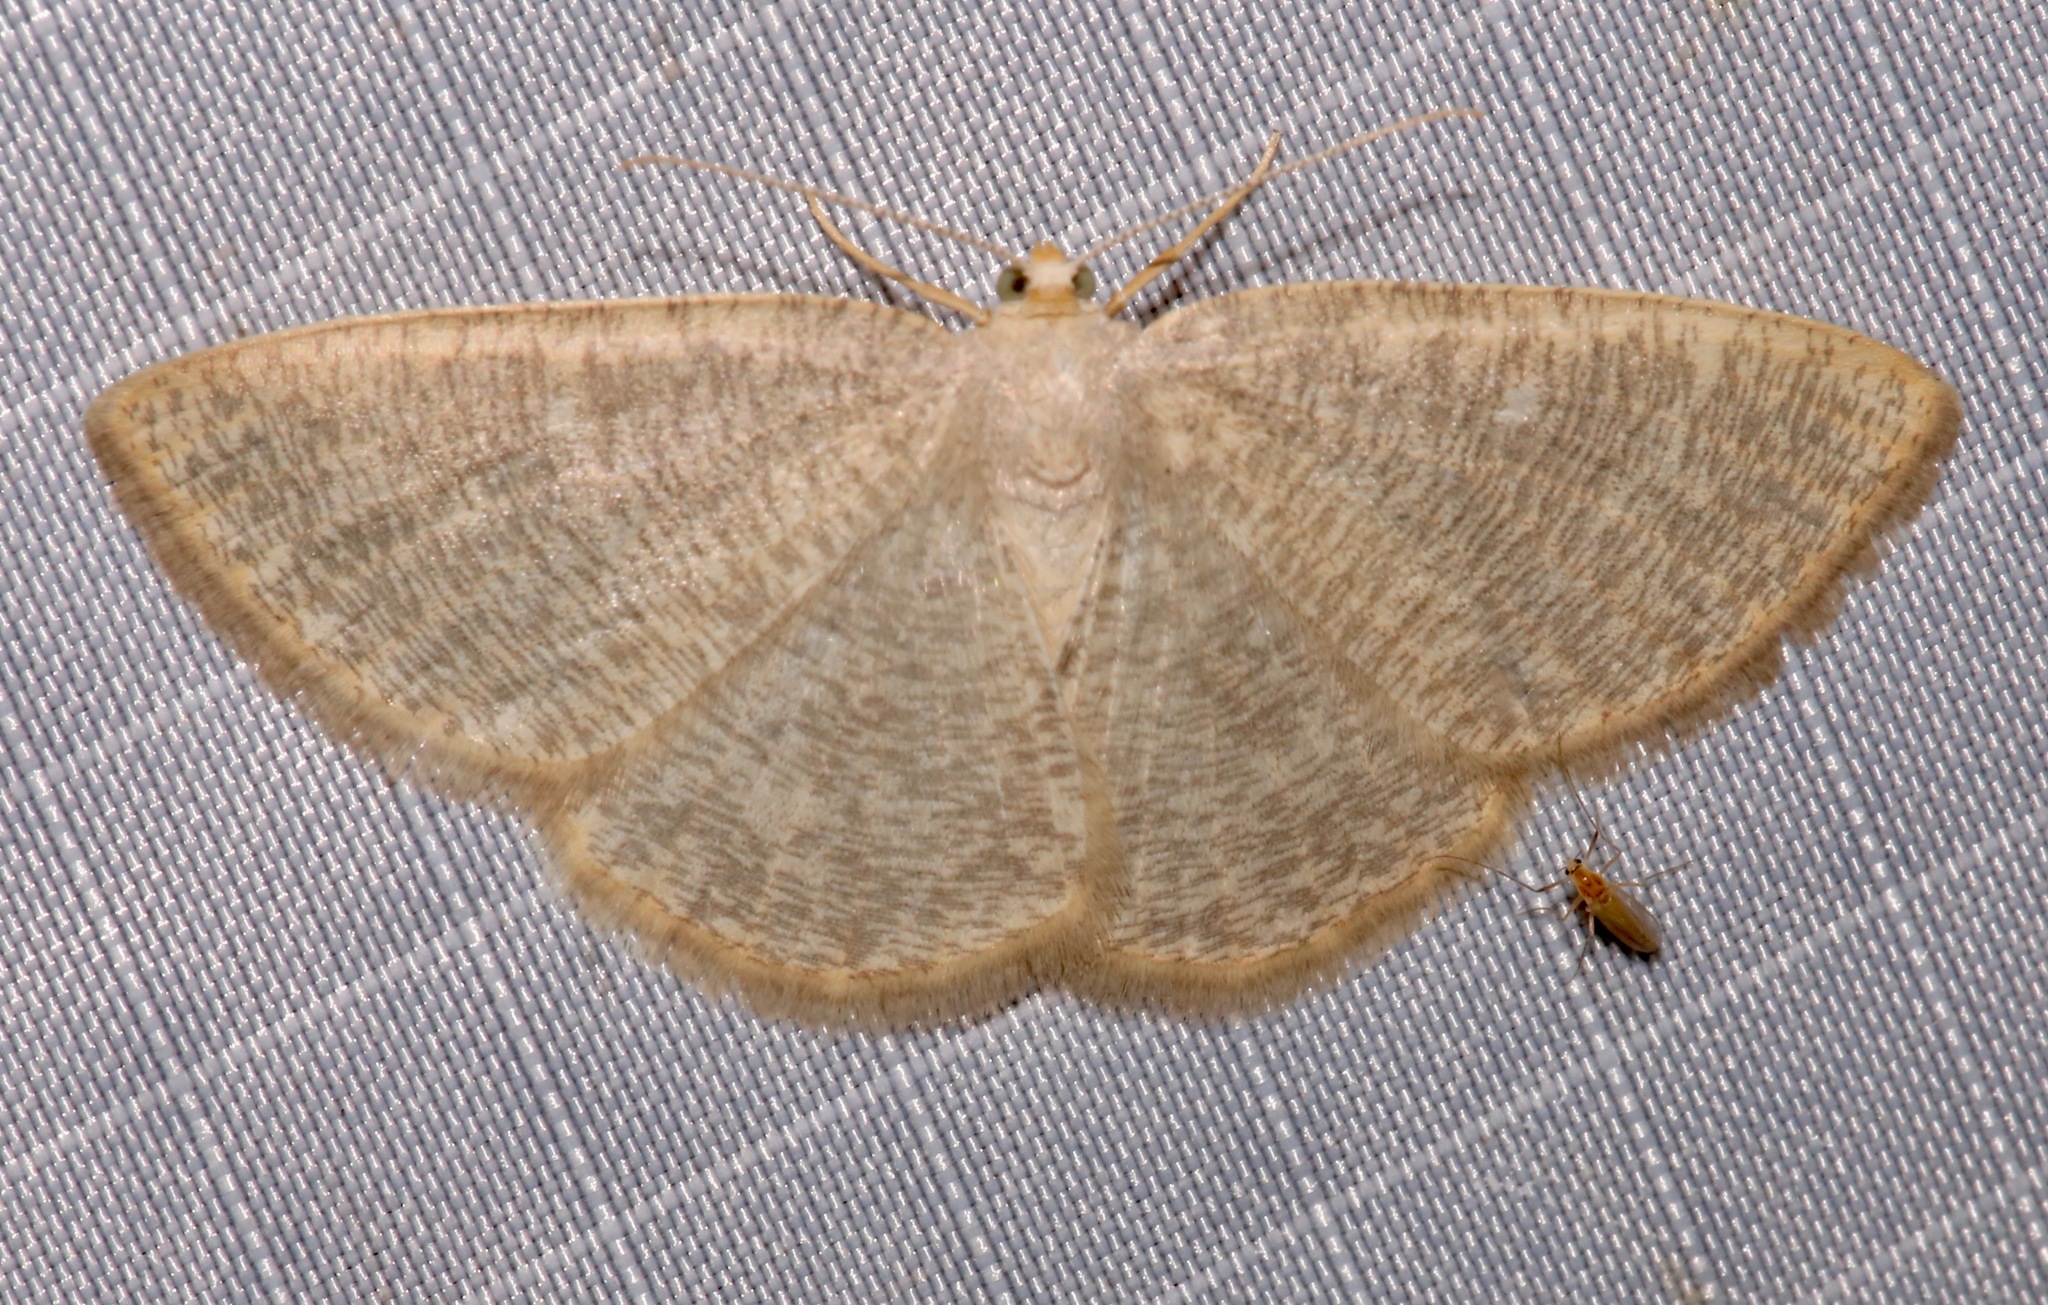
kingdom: Animalia
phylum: Arthropoda
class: Insecta
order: Lepidoptera
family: Geometridae
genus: Pterospoda
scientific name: Pterospoda kunzei
